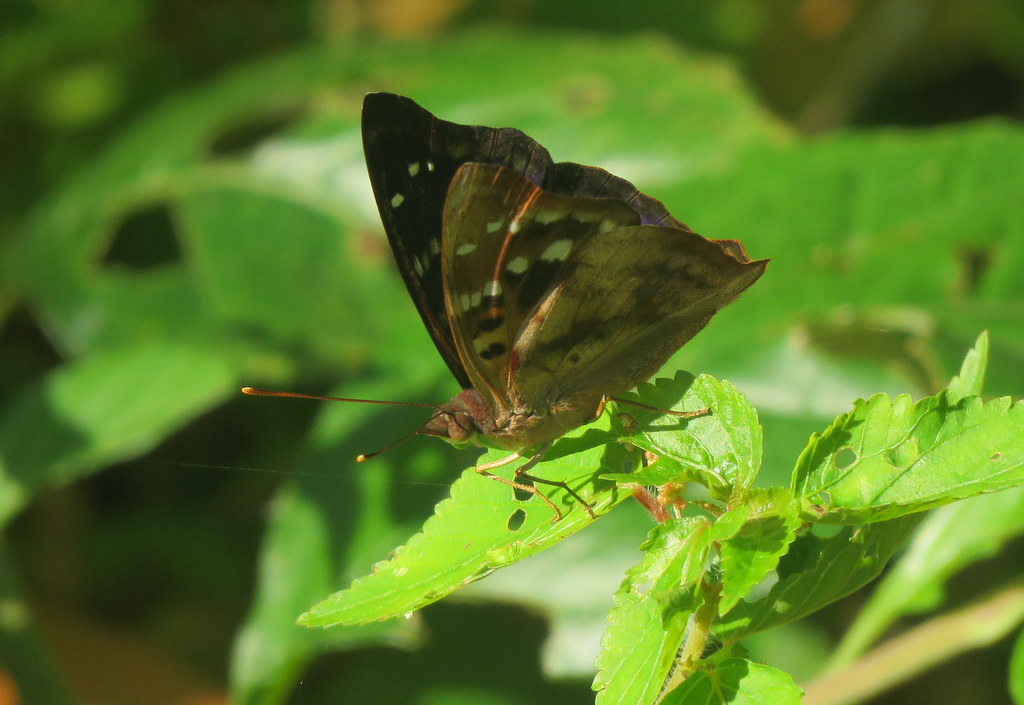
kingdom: Animalia
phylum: Arthropoda
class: Insecta
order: Lepidoptera
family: Nymphalidae
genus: Doxocopa
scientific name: Doxocopa kallina
